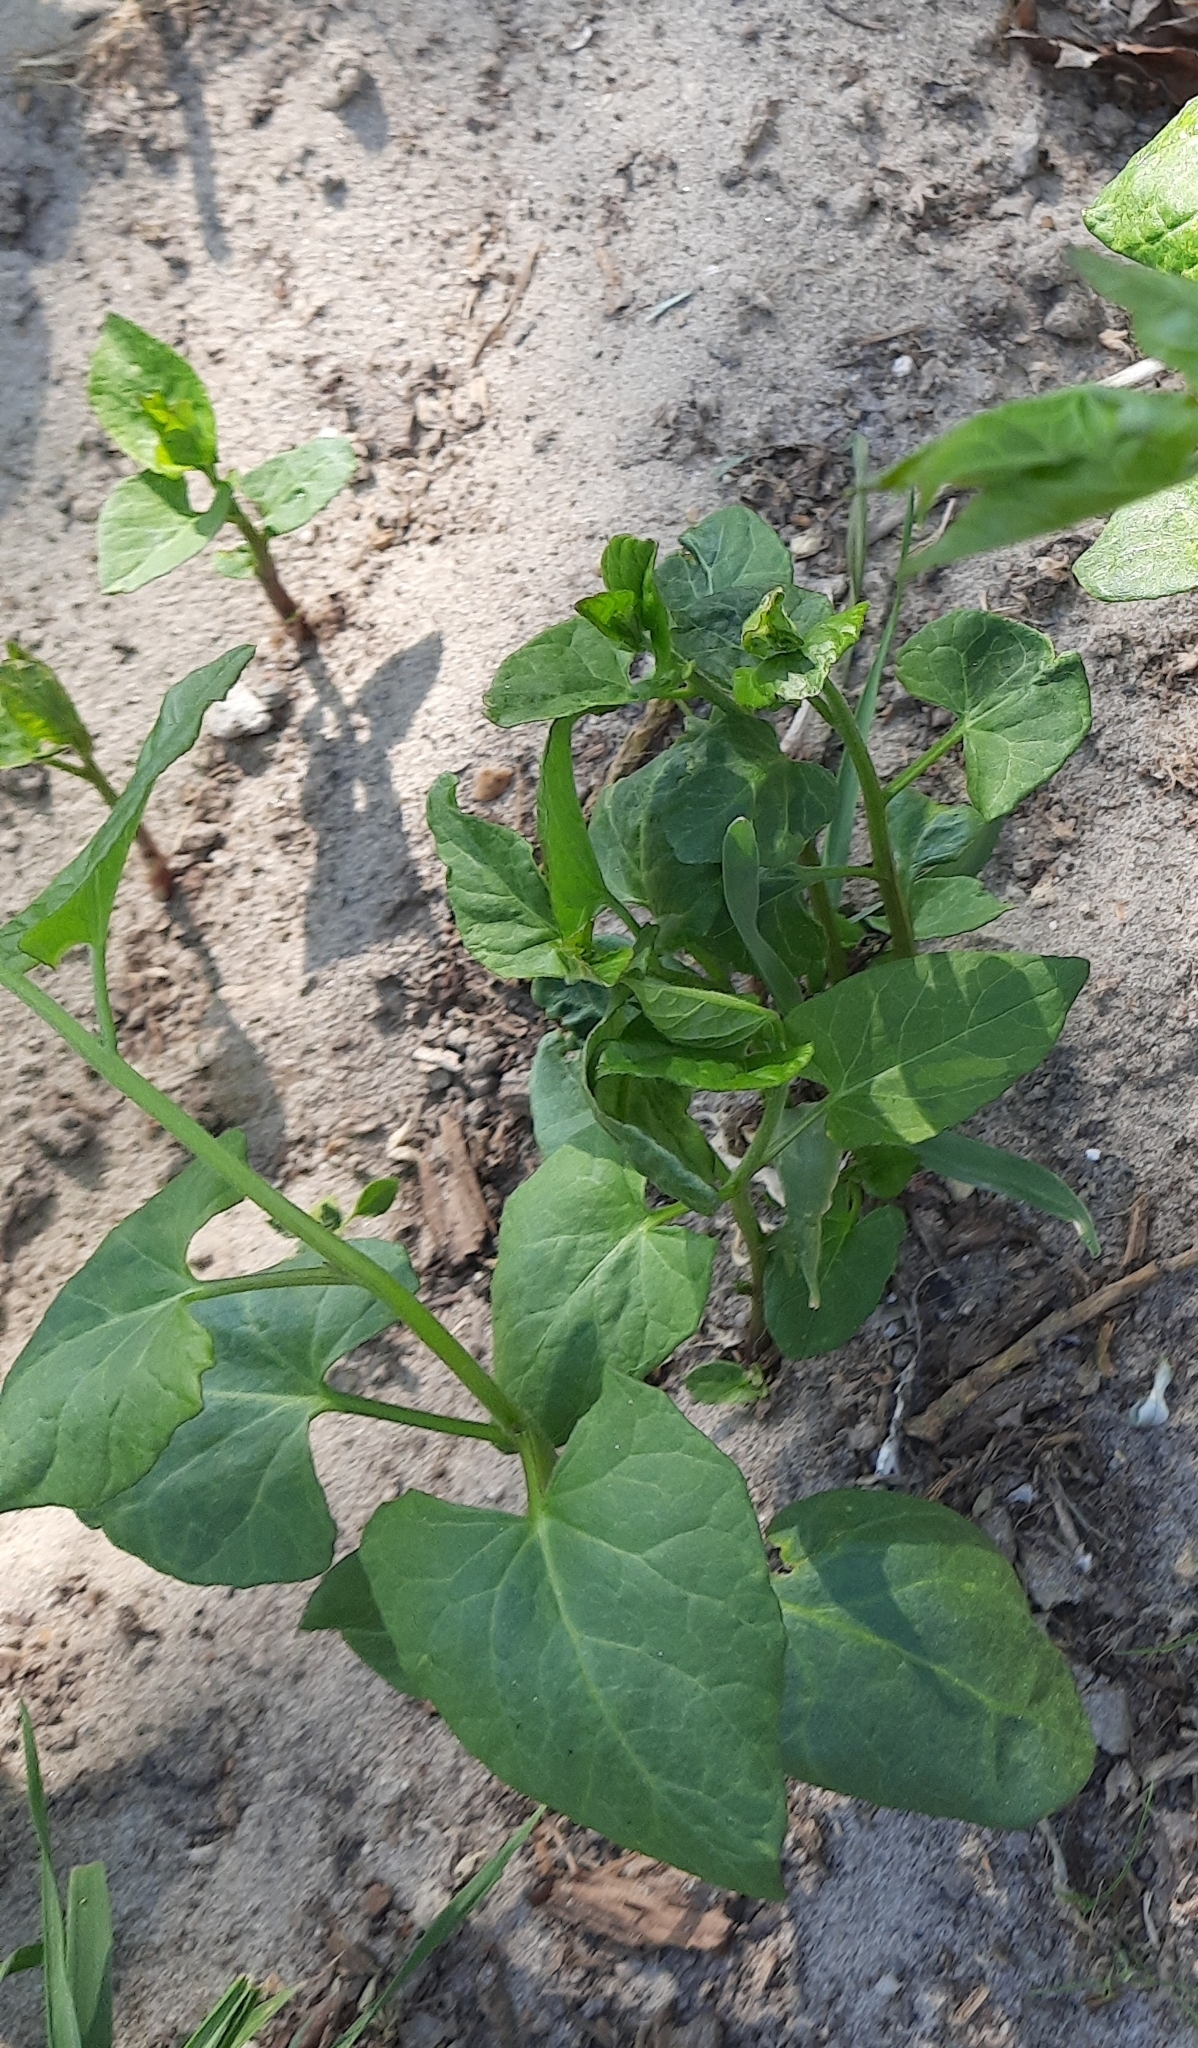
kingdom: Plantae
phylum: Tracheophyta
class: Magnoliopsida
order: Caryophyllales
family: Polygonaceae
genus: Fallopia
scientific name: Fallopia convolvulus
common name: Black bindweed
